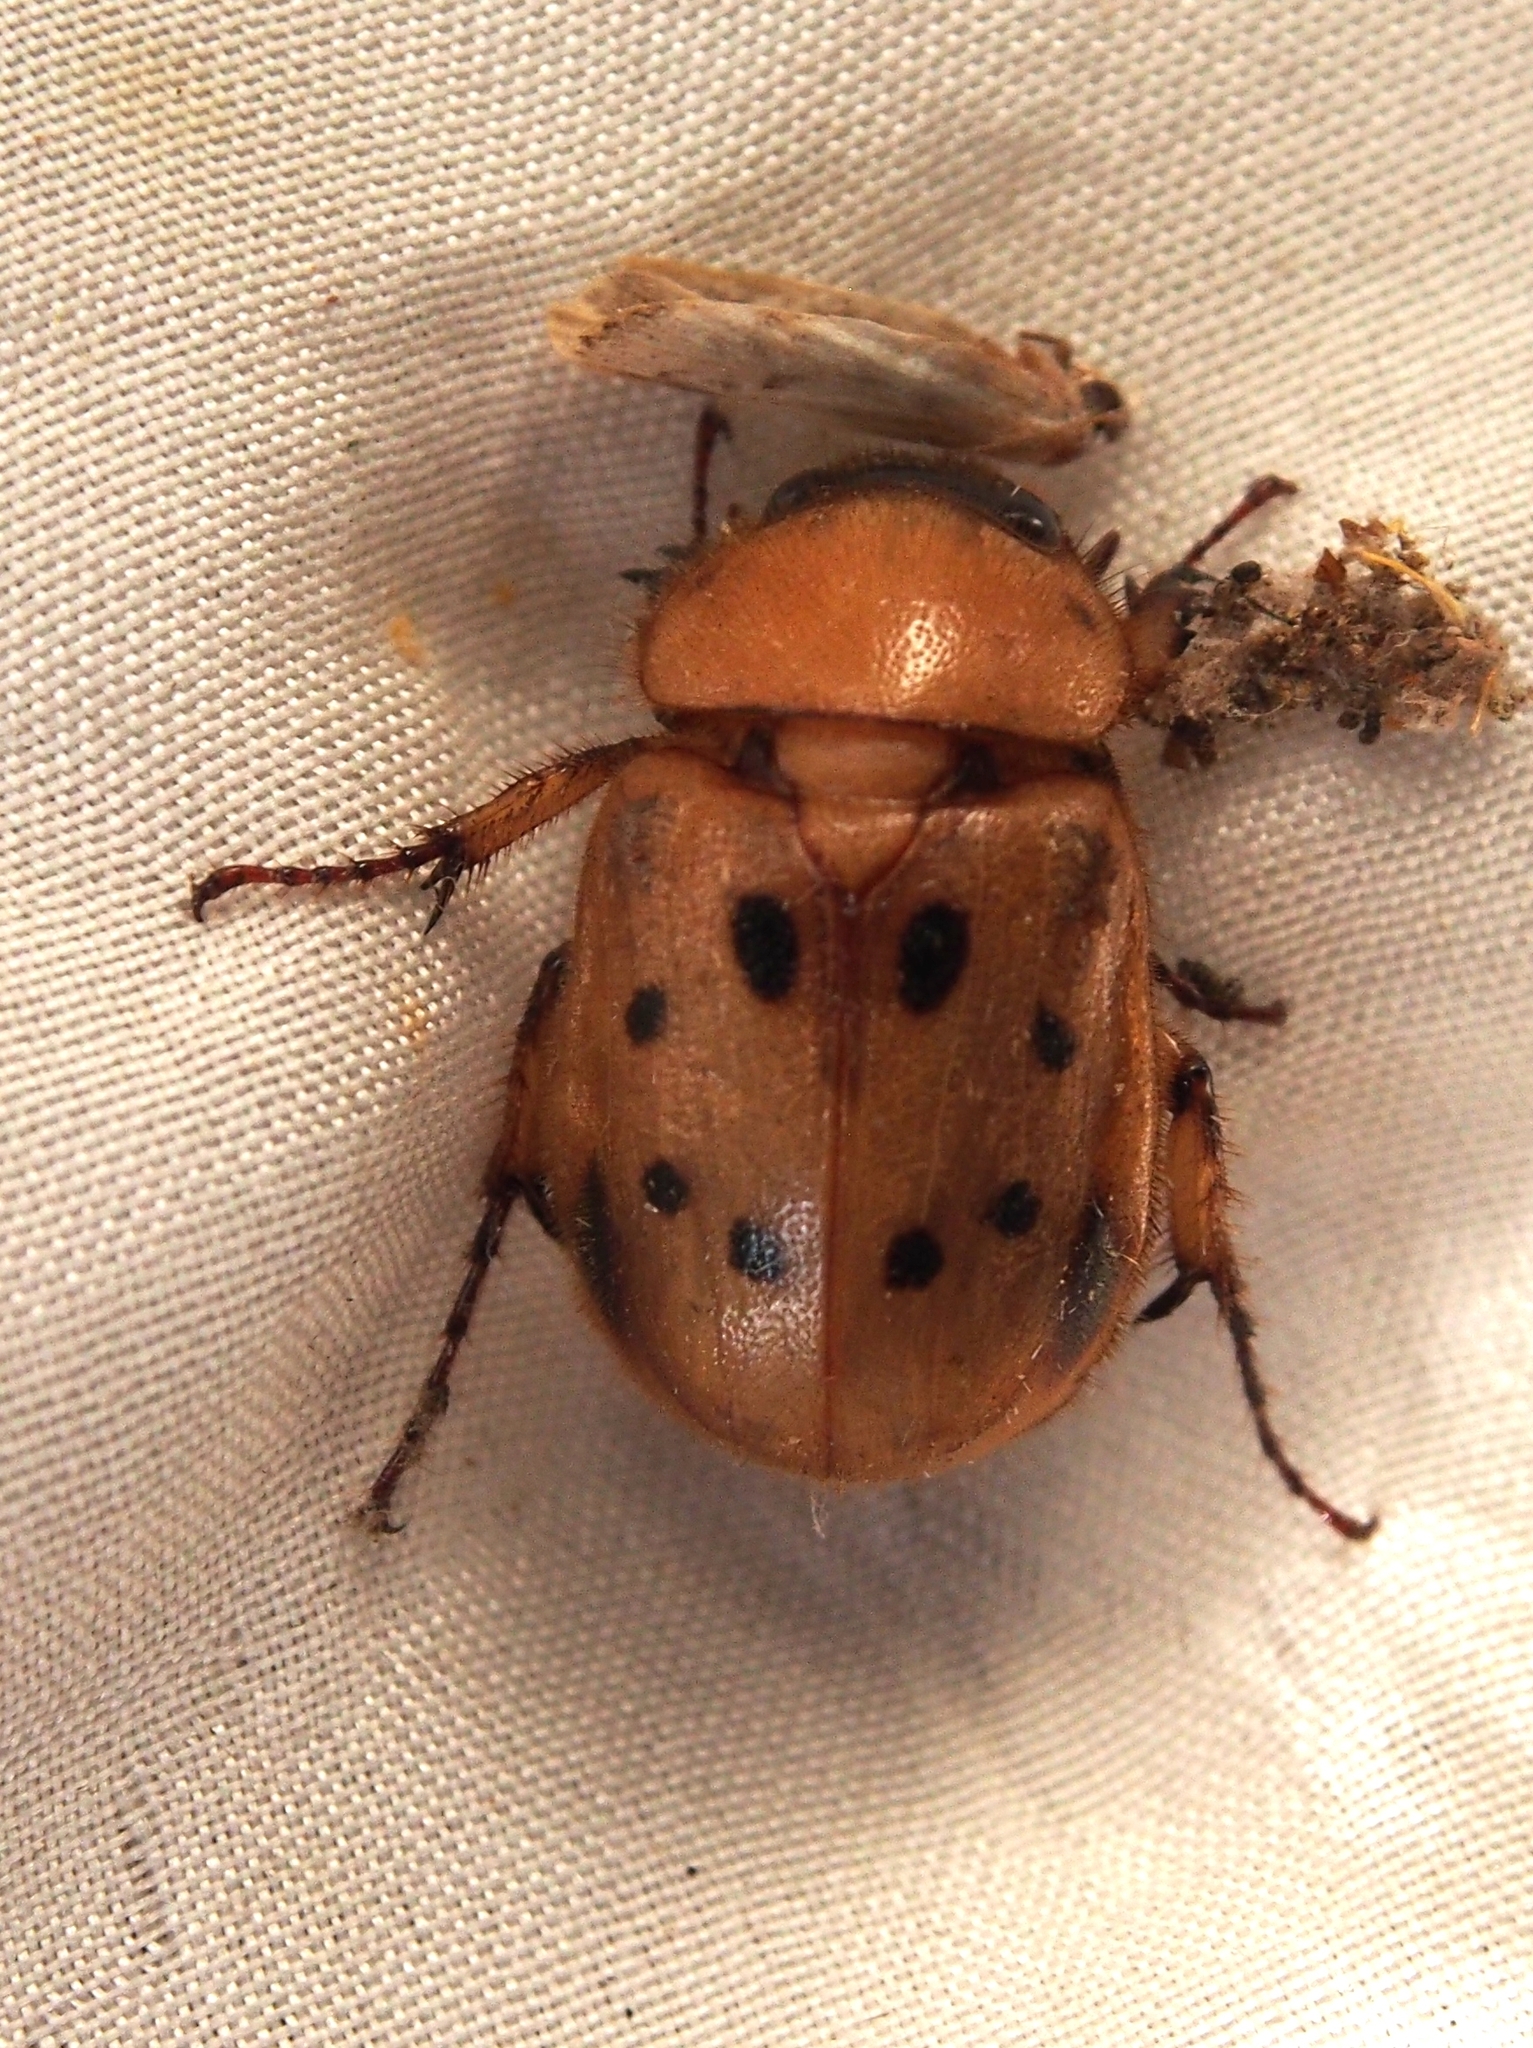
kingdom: Animalia
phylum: Arthropoda
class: Insecta
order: Coleoptera
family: Scarabaeidae
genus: Cyclocephala
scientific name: Cyclocephala brittoni
